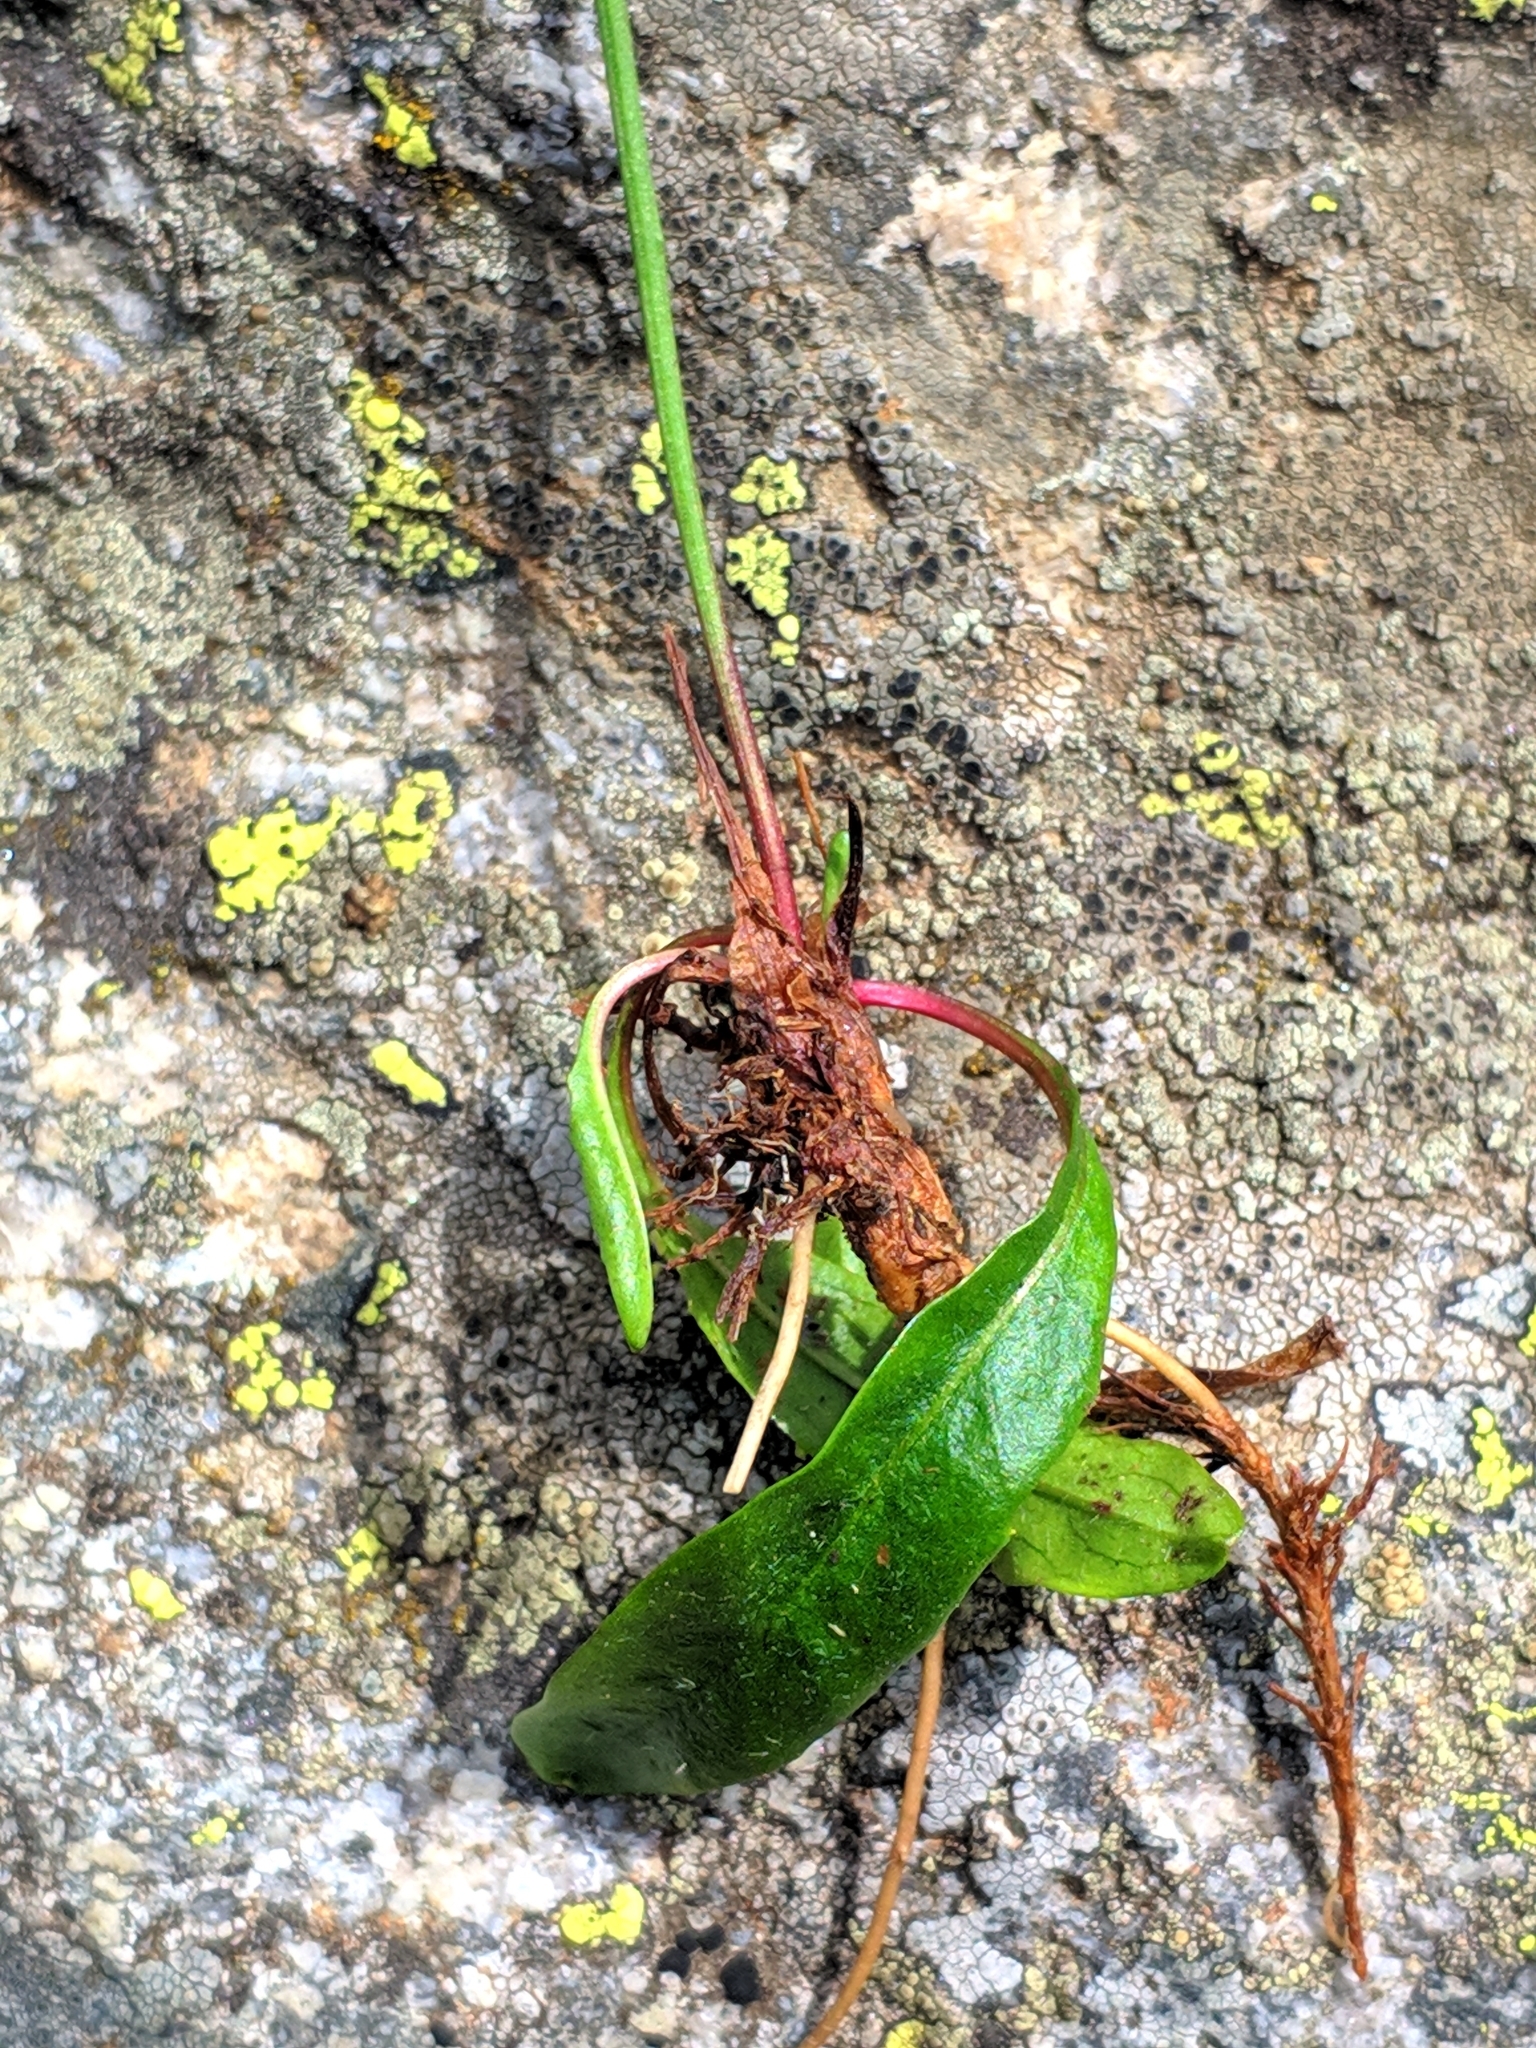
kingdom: Plantae
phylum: Tracheophyta
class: Magnoliopsida
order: Asterales
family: Asteraceae
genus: Scorzoneroides
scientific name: Scorzoneroides helvetica
